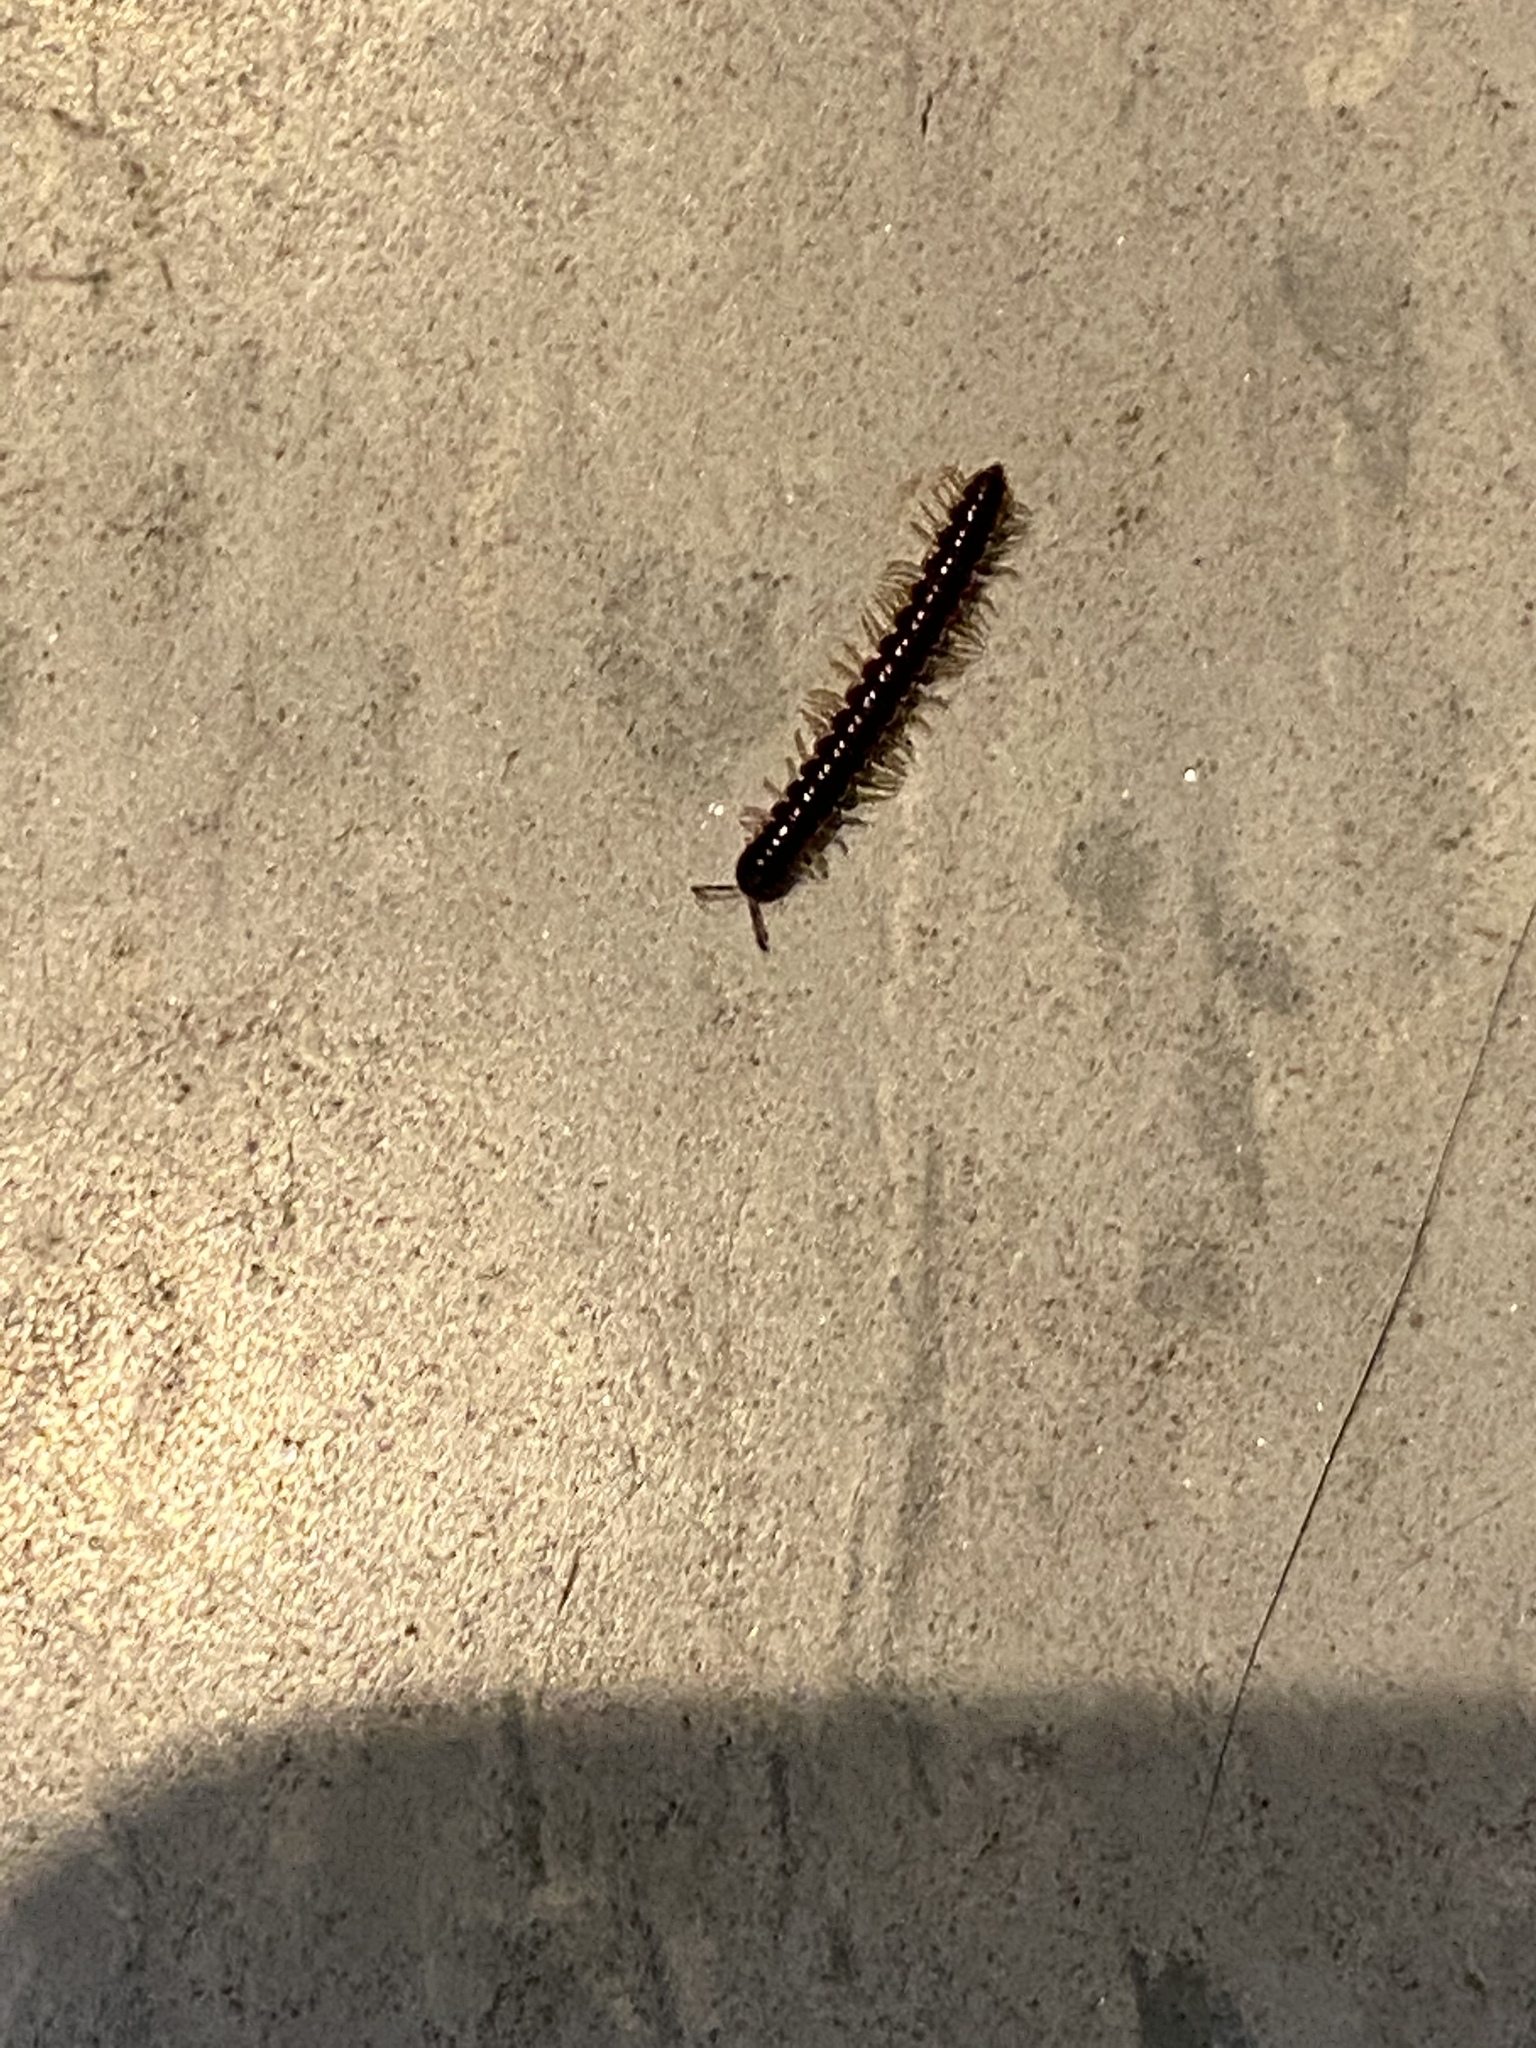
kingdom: Animalia
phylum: Arthropoda
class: Diplopoda
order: Polydesmida
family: Paradoxosomatidae
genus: Oxidus
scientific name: Oxidus gracilis
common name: Greenhouse millipede
